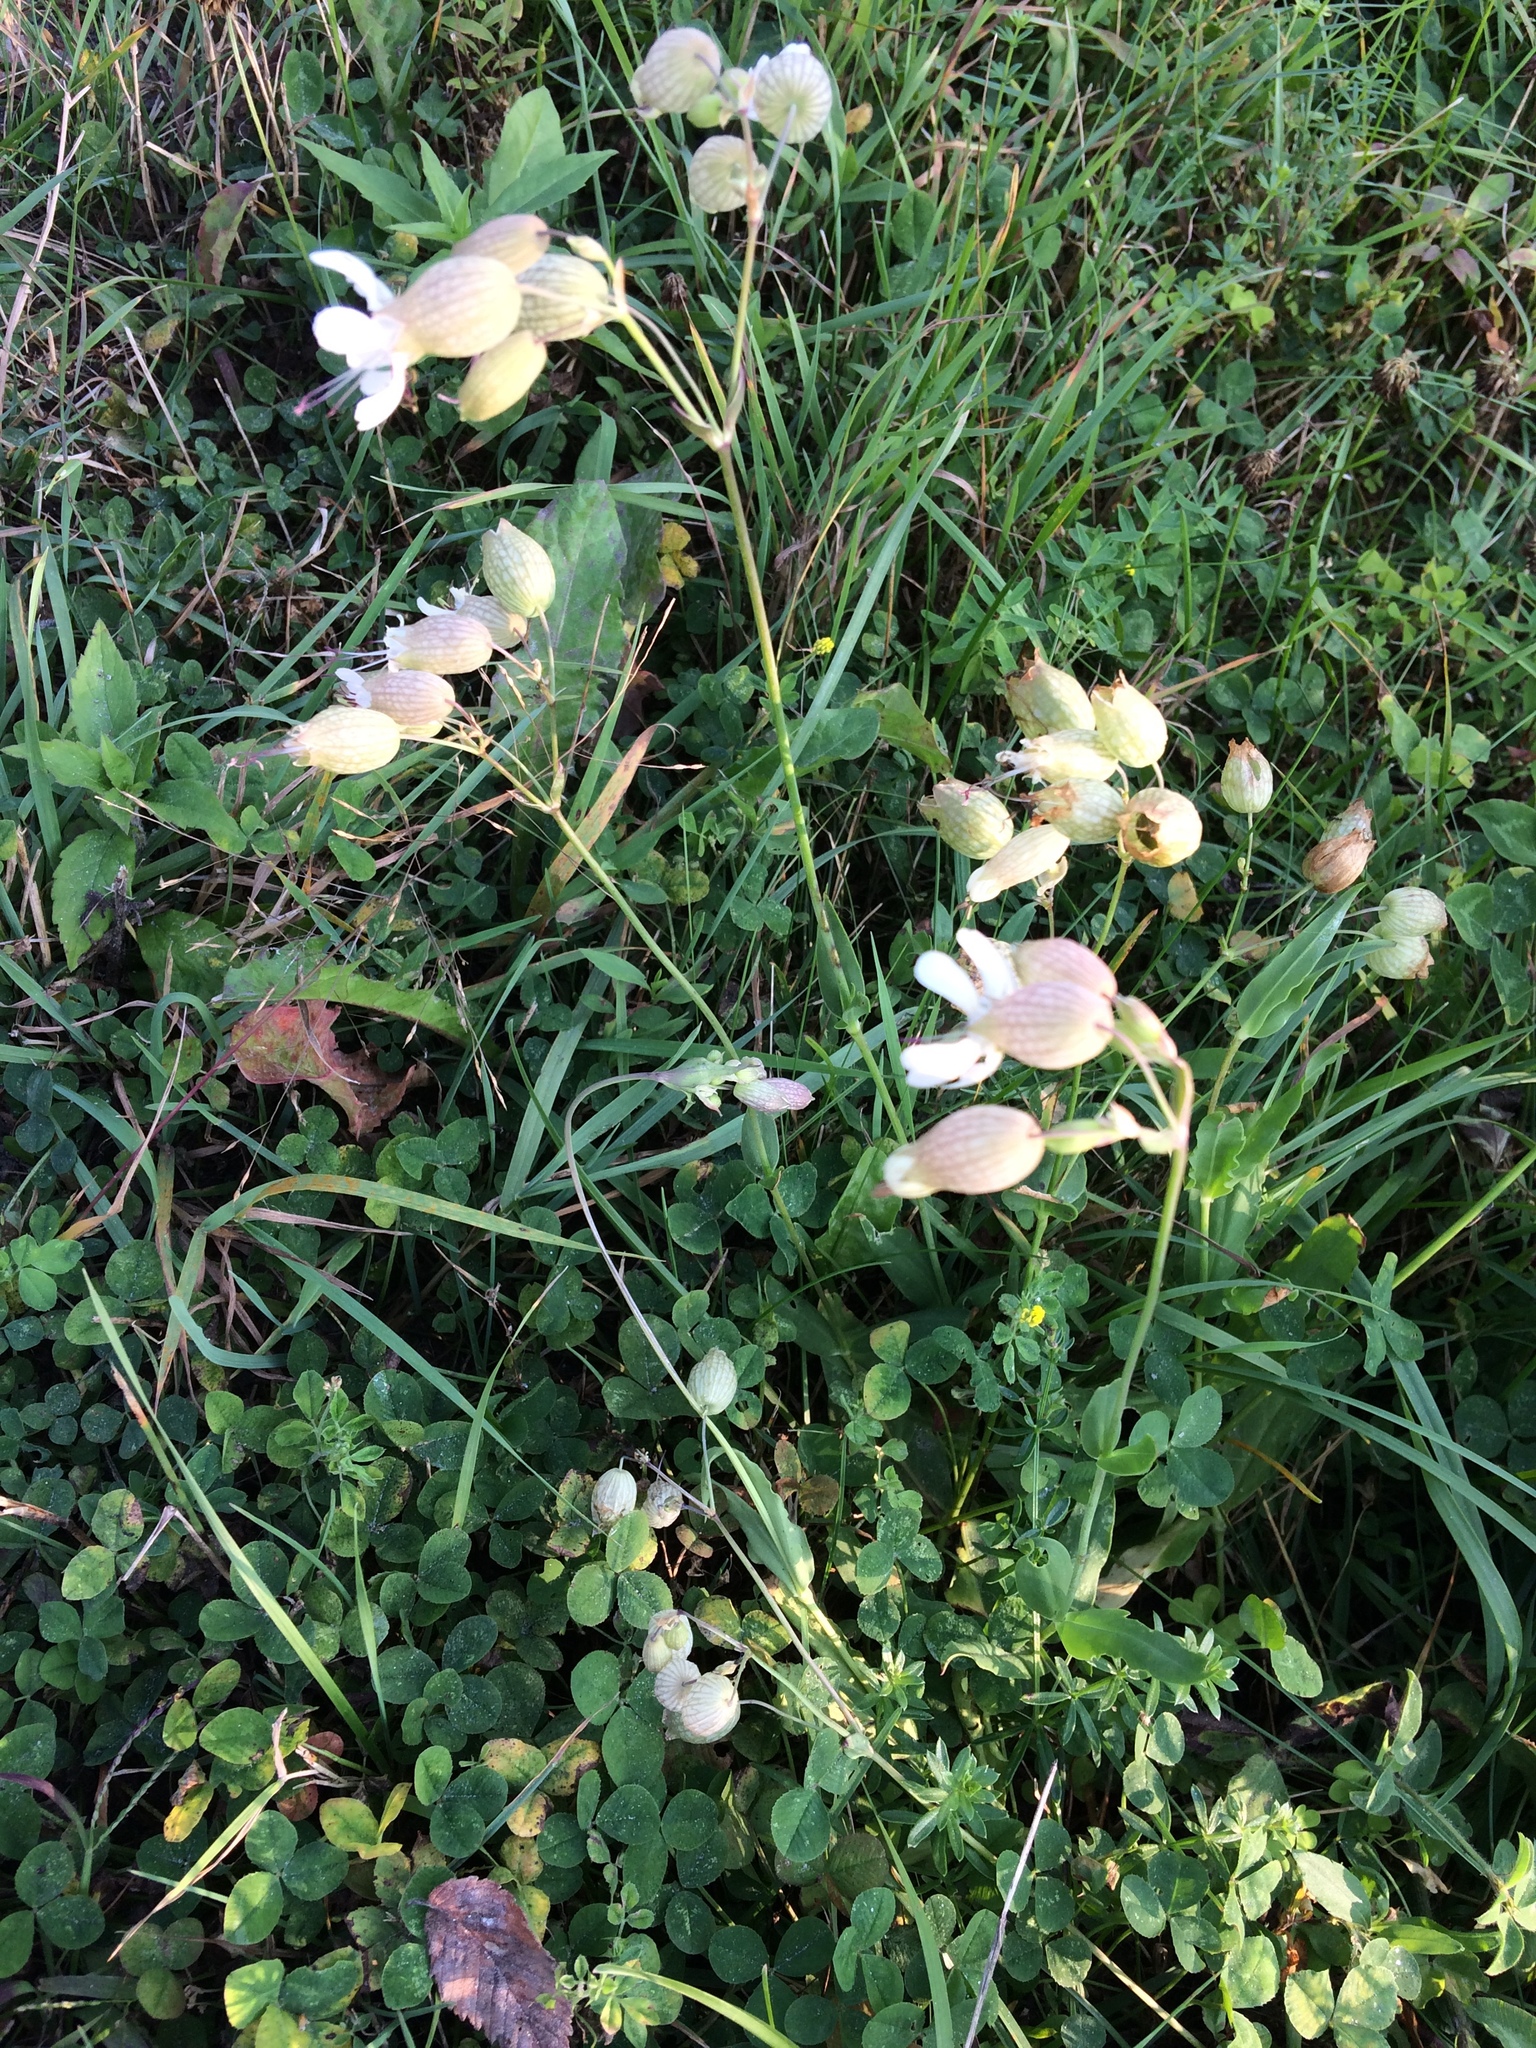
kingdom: Plantae
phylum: Tracheophyta
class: Magnoliopsida
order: Caryophyllales
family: Caryophyllaceae
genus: Silene
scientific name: Silene vulgaris
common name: Bladder campion
